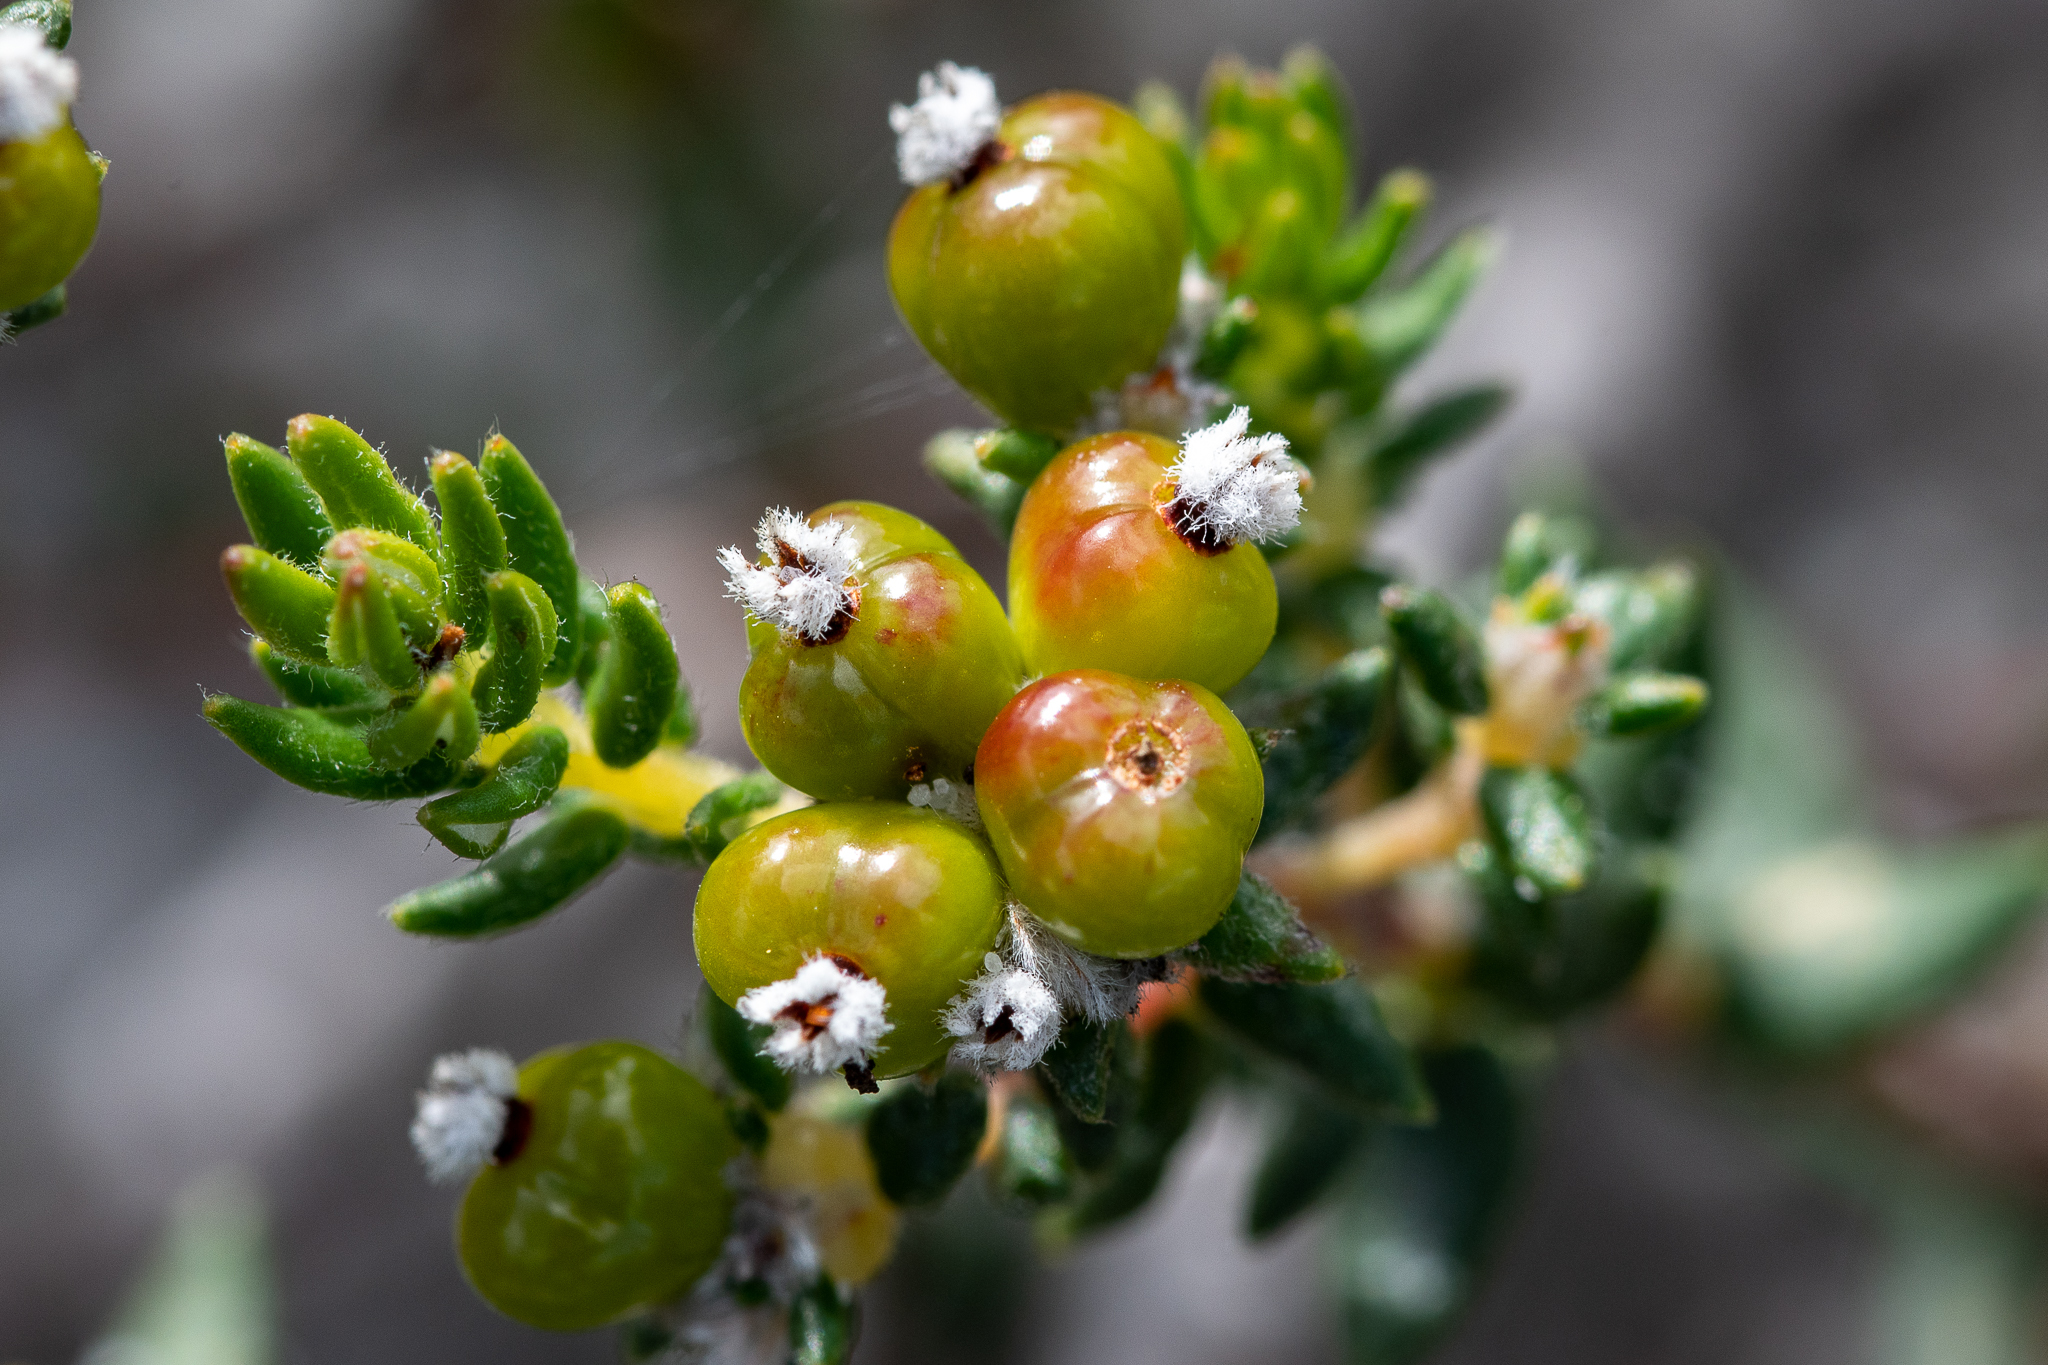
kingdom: Plantae
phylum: Tracheophyta
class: Magnoliopsida
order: Rosales
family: Rhamnaceae
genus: Phylica
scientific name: Phylica ericoides
